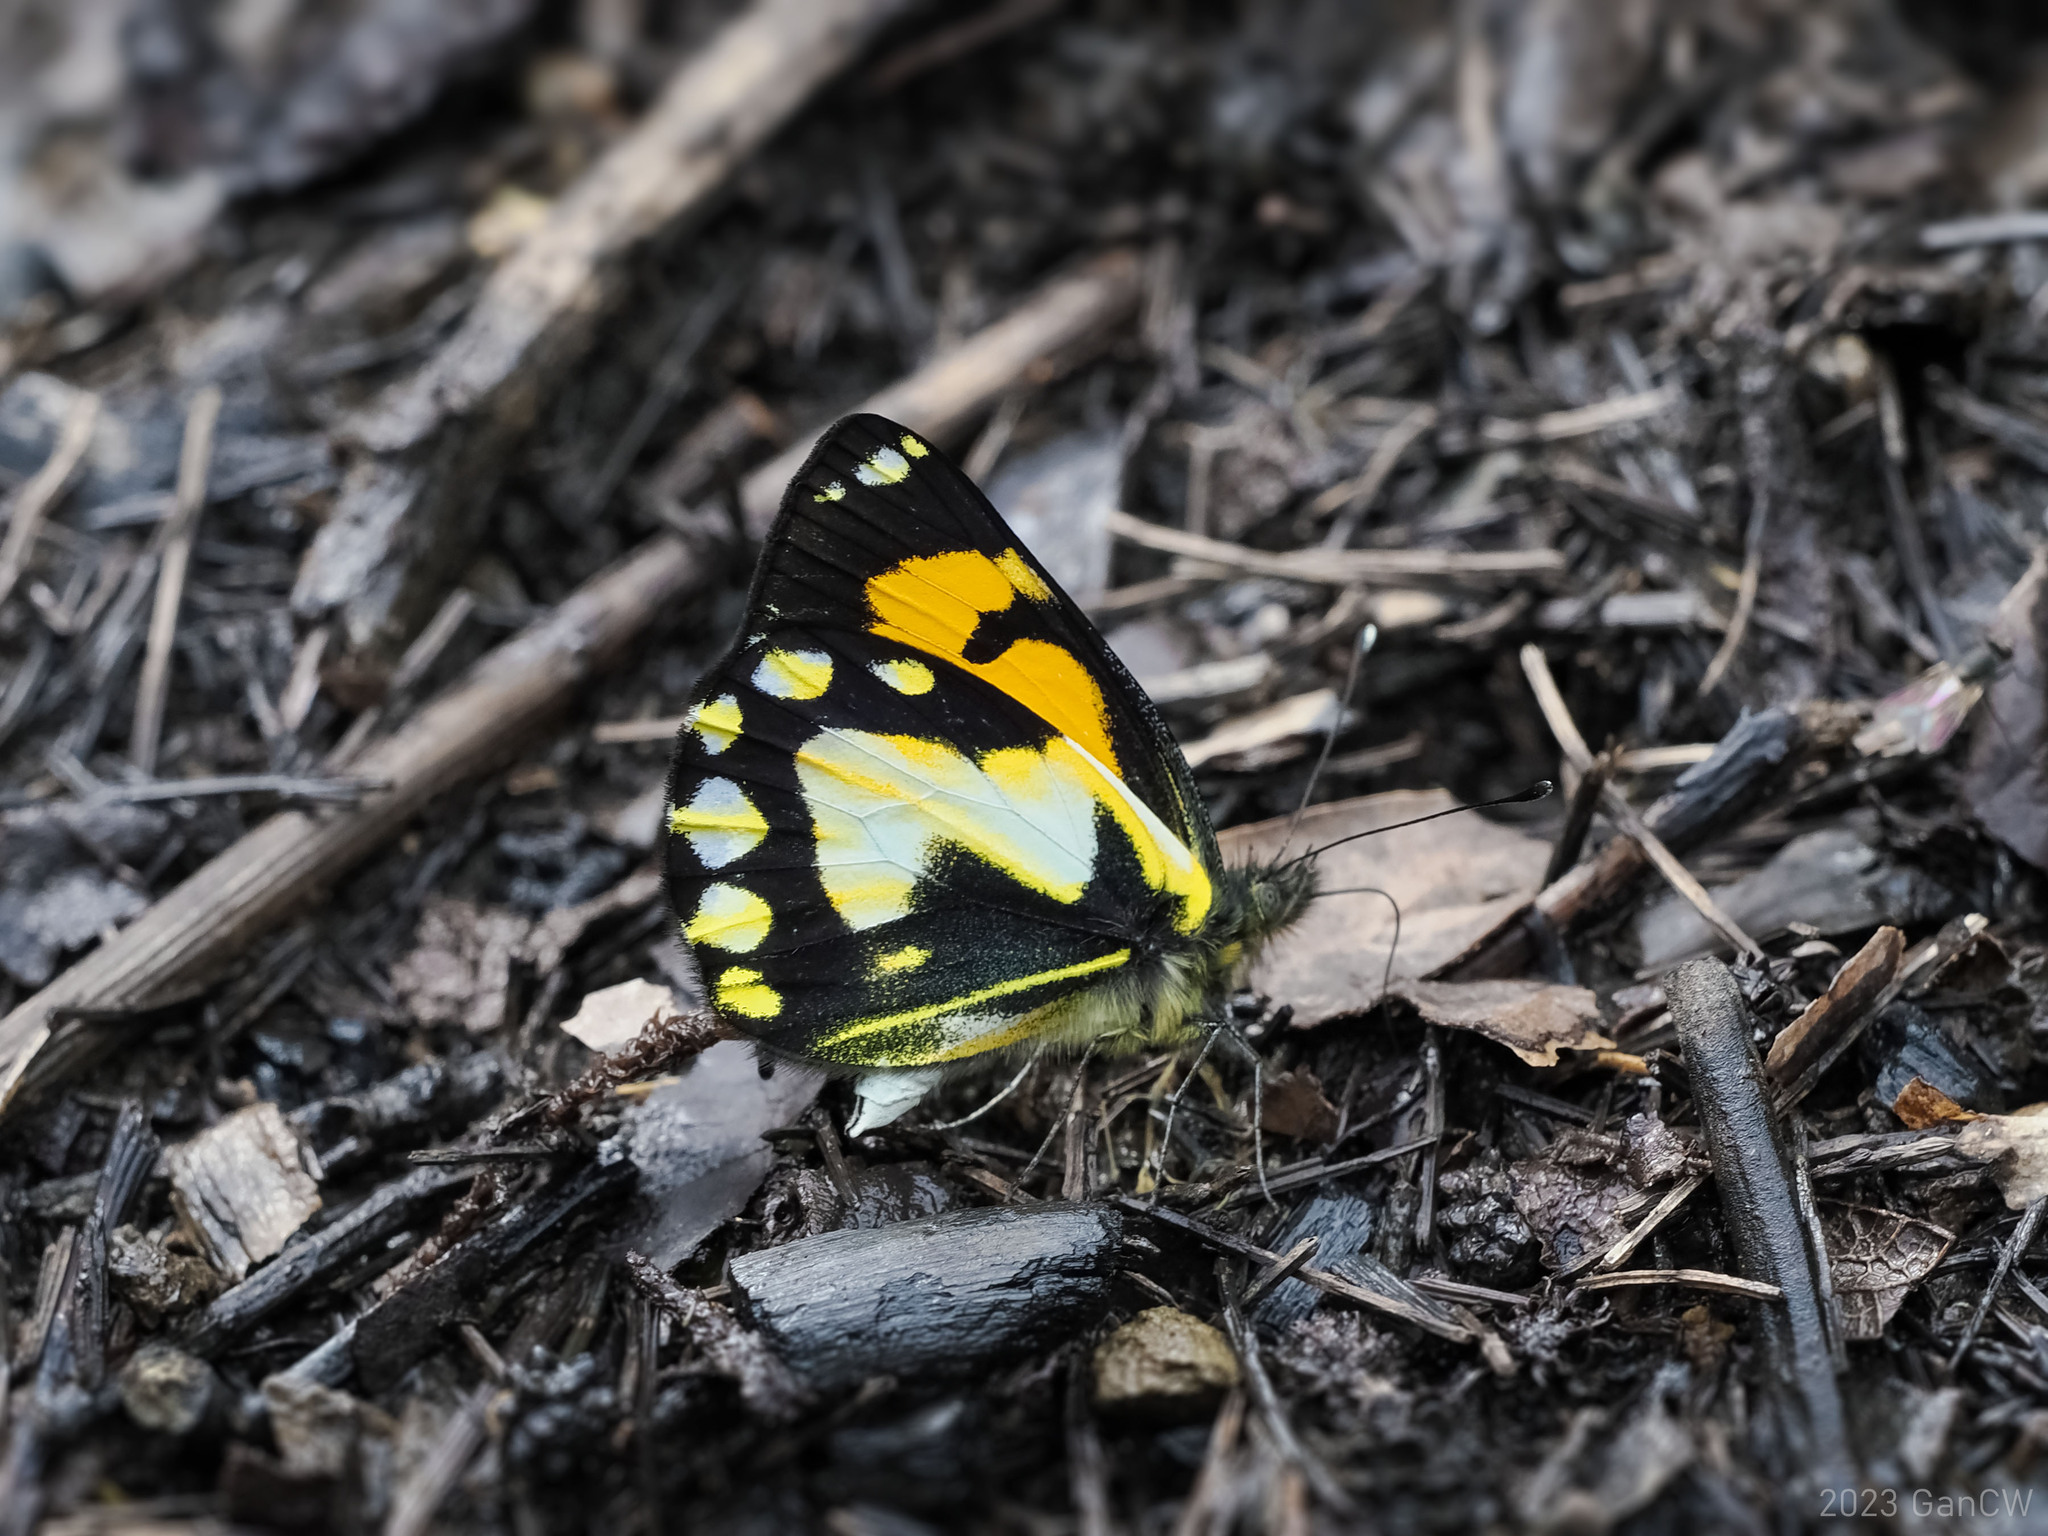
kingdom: Animalia
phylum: Arthropoda
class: Insecta
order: Lepidoptera
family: Pieridae
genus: Delias
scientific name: Delias
